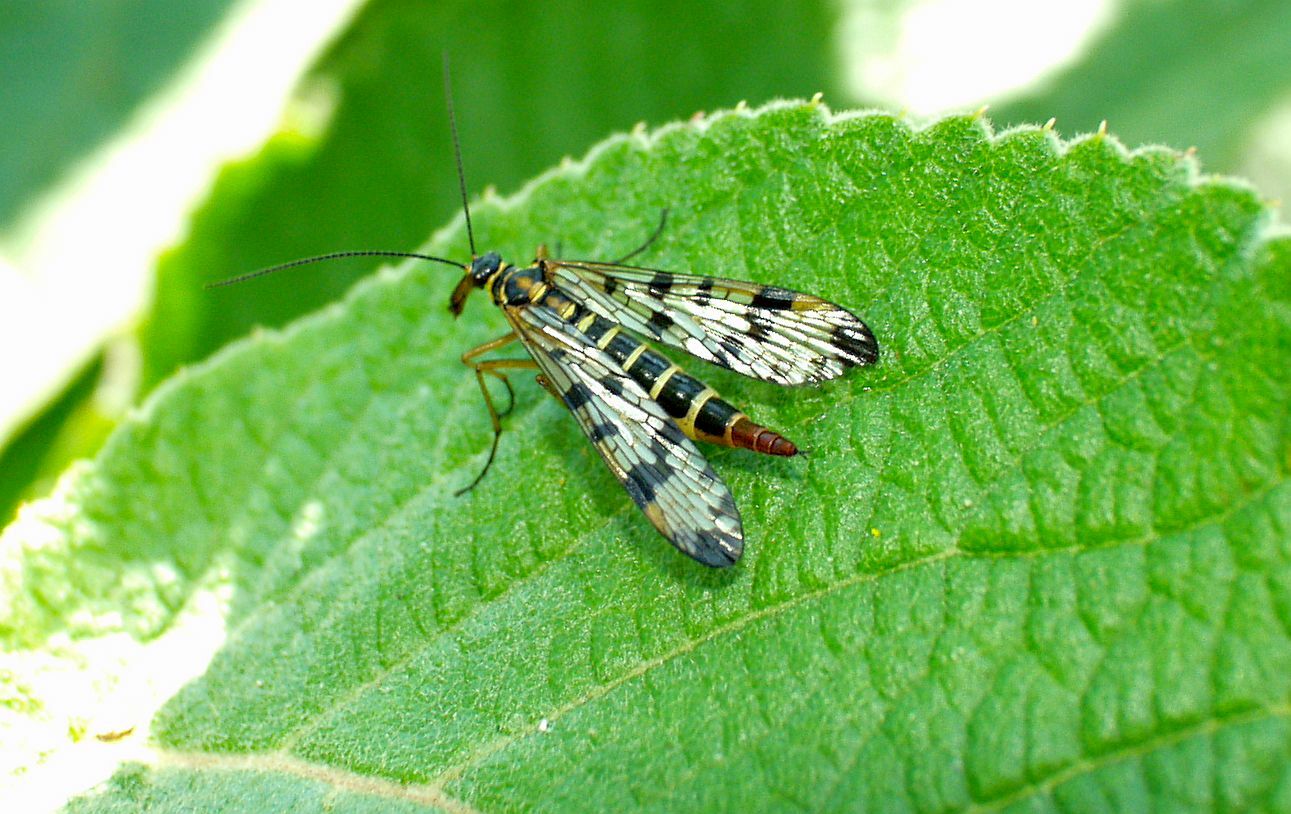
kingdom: Animalia
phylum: Arthropoda
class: Insecta
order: Mecoptera
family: Panorpidae
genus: Panorpa
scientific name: Panorpa communis
